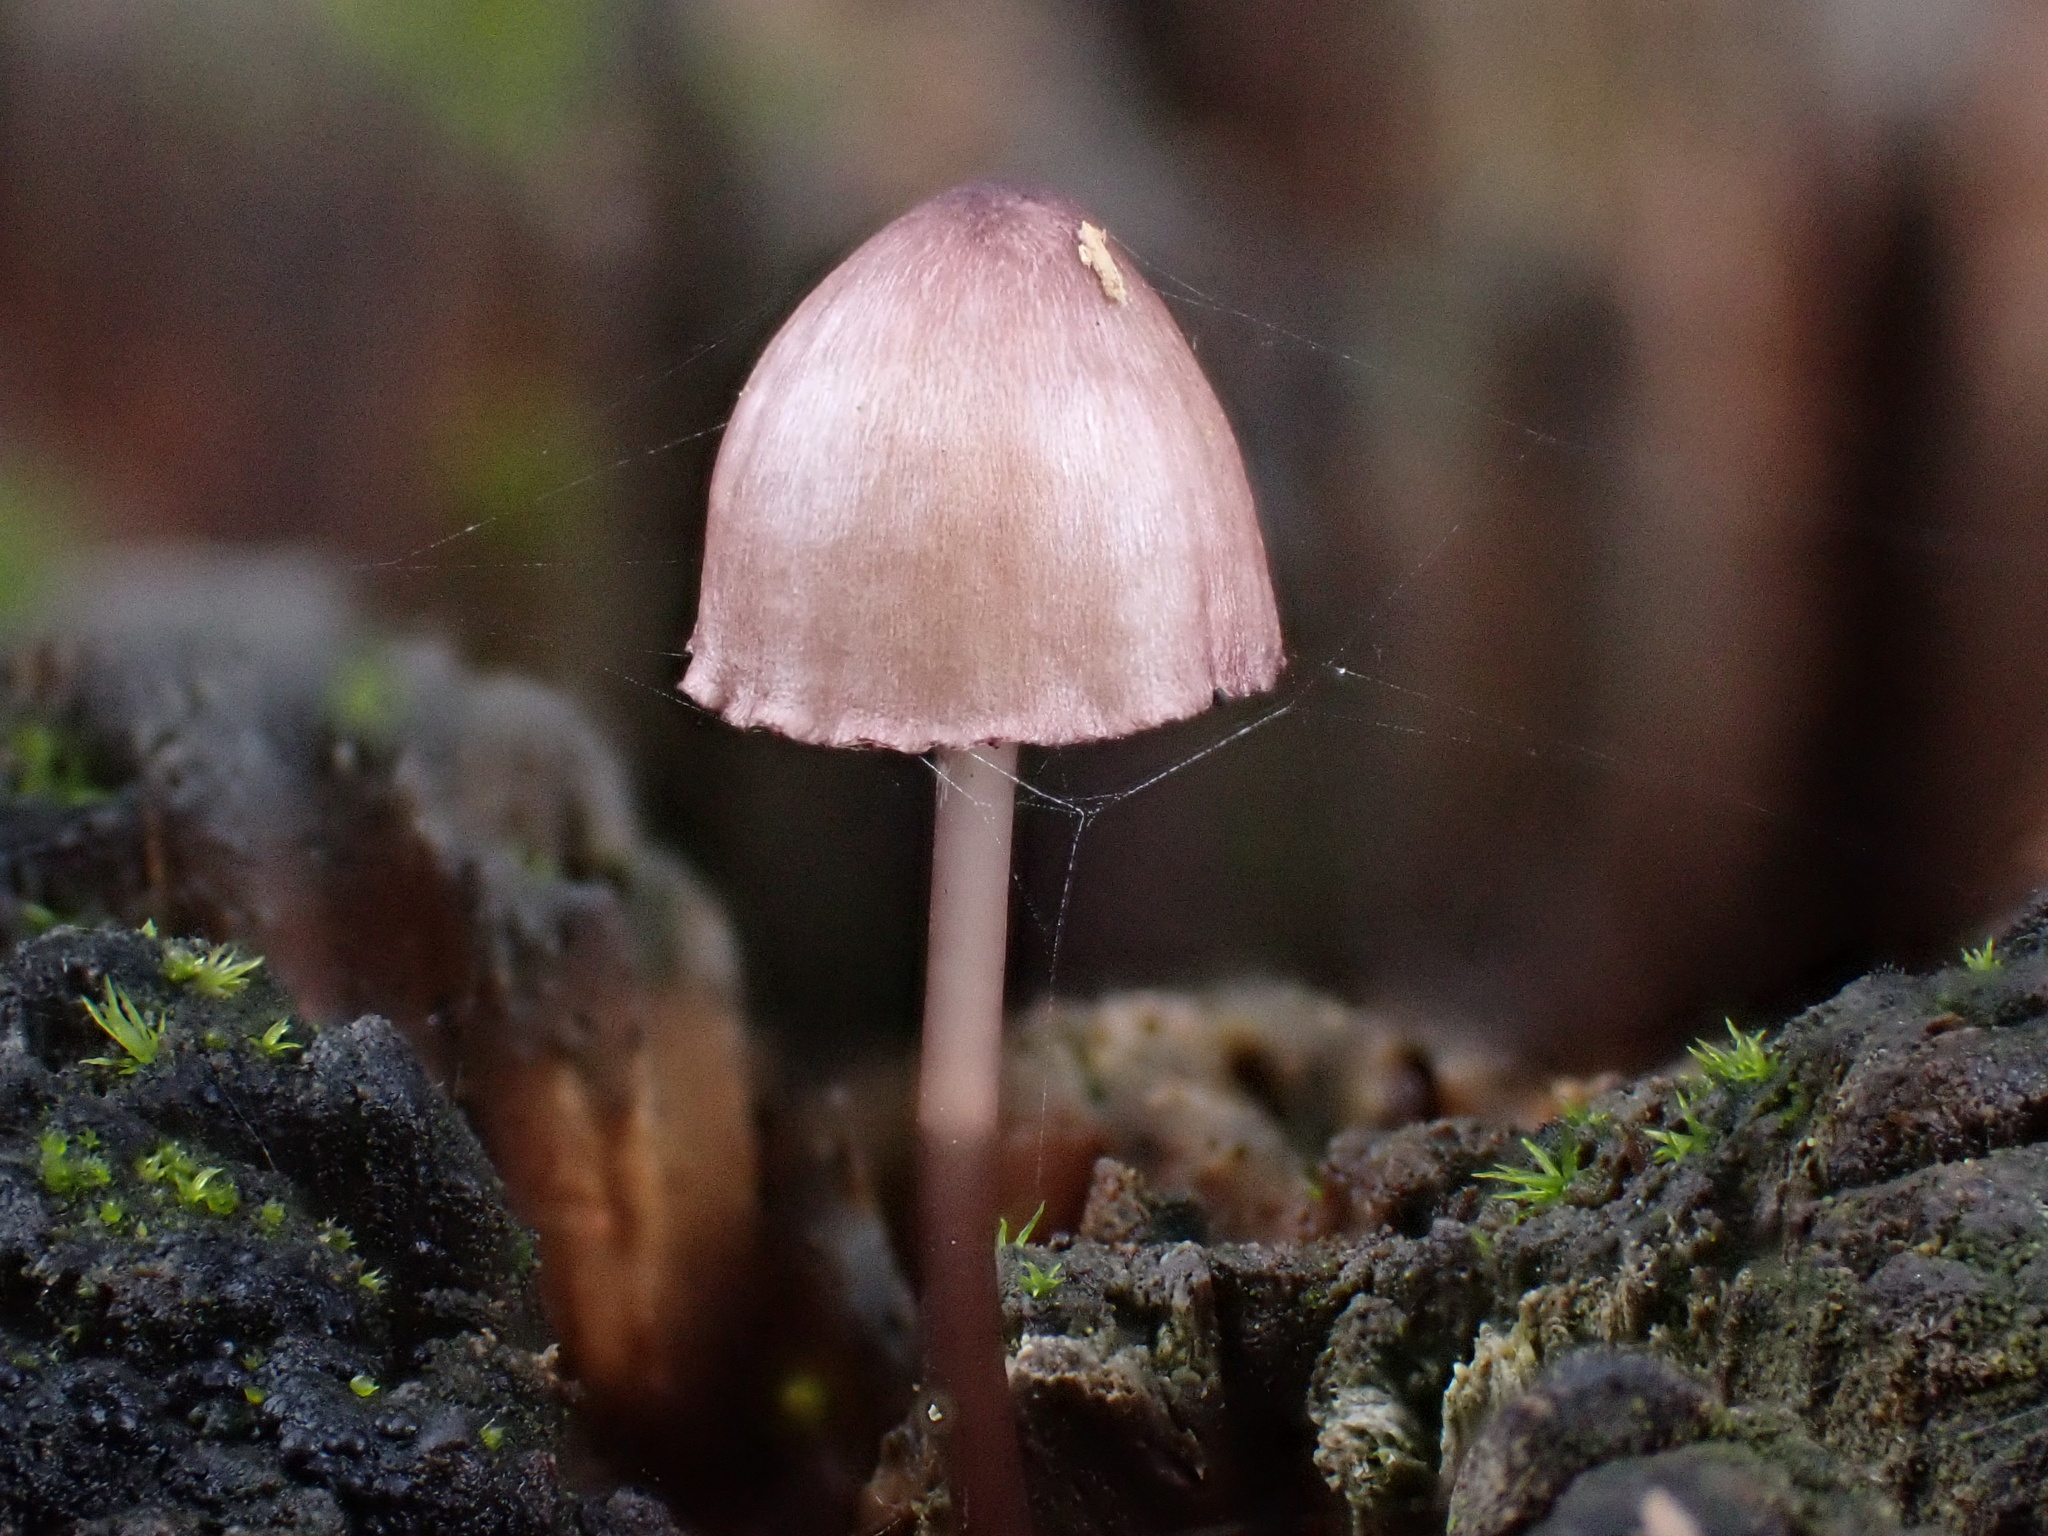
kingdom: Fungi
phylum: Basidiomycota
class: Agaricomycetes
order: Agaricales
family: Mycenaceae
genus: Mycena
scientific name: Mycena purpureofusca
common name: Purple edge bonnet
